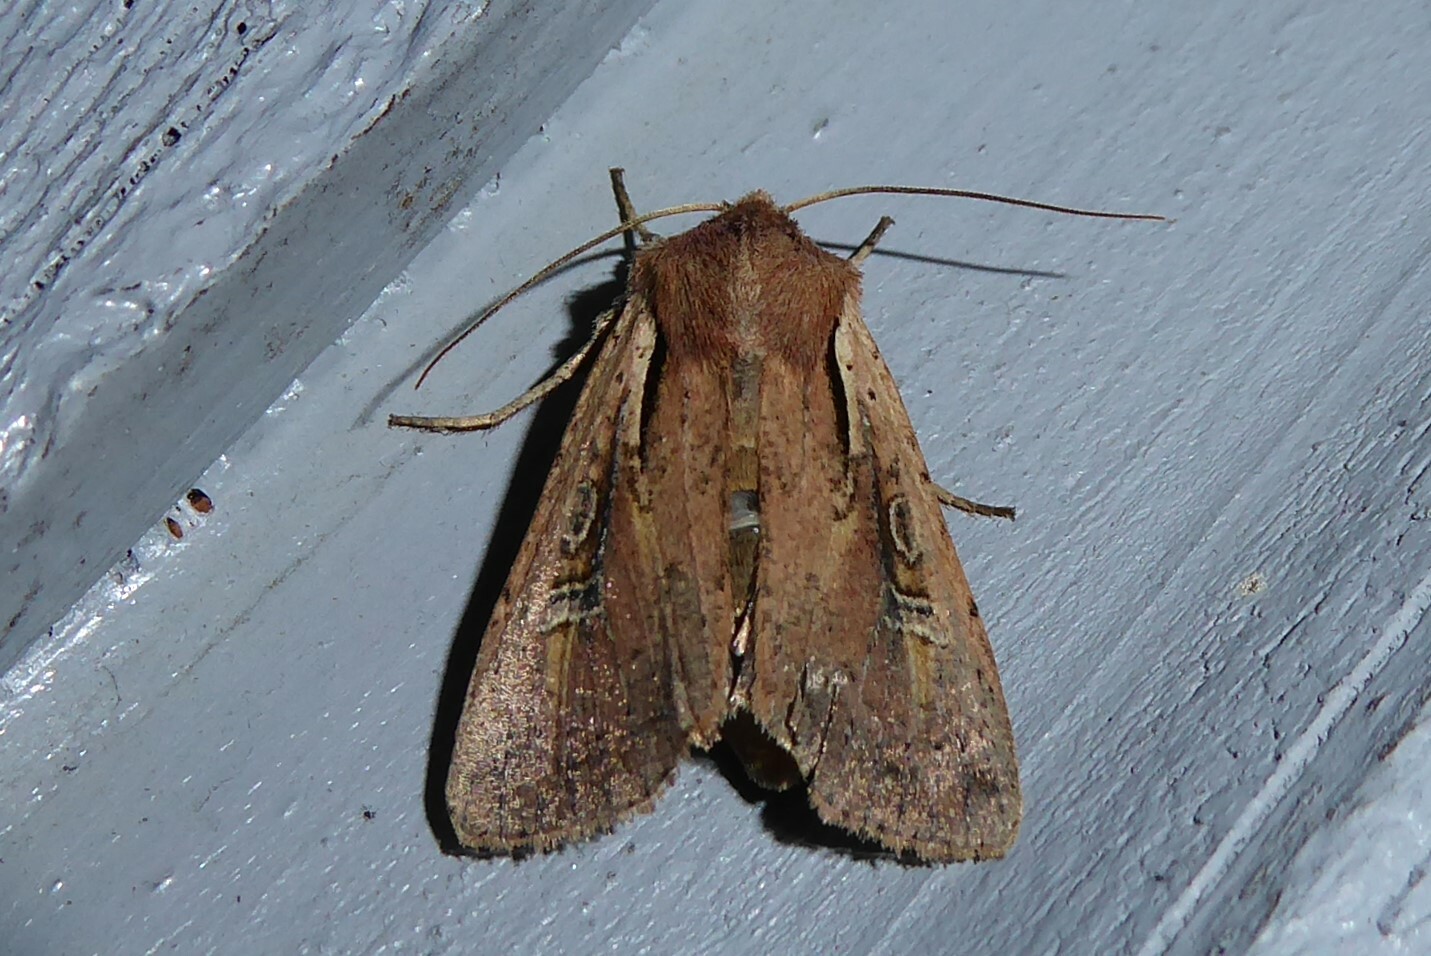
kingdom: Animalia
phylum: Arthropoda
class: Insecta
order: Lepidoptera
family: Noctuidae
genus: Ichneutica
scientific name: Ichneutica atristriga
